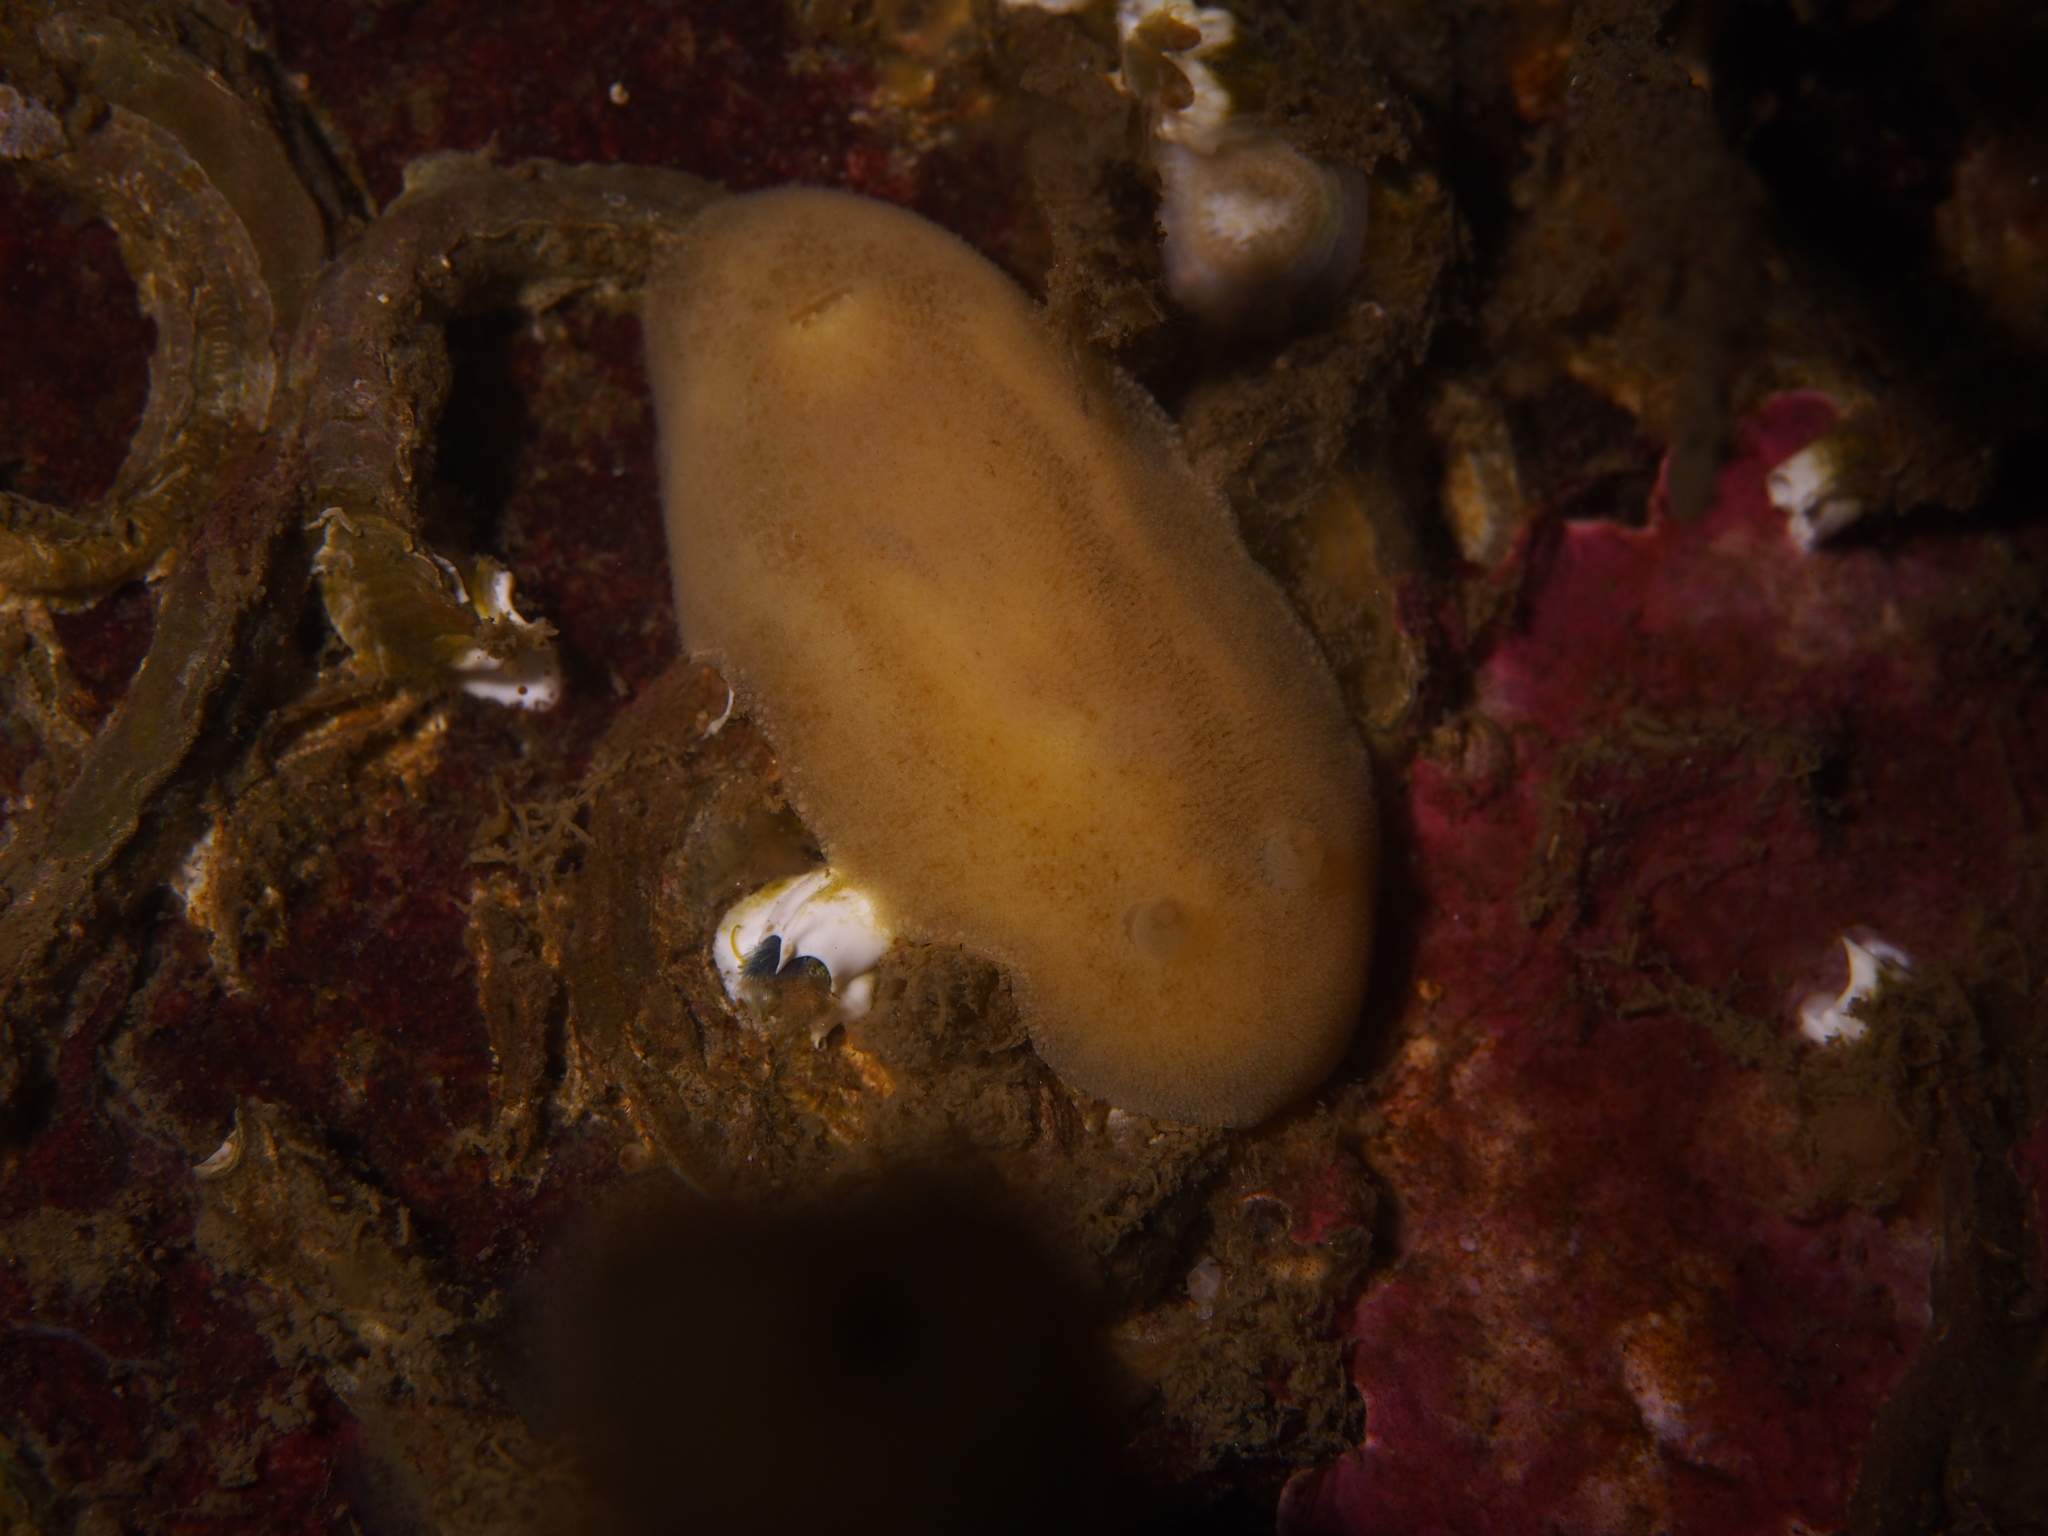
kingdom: Animalia
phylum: Mollusca
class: Gastropoda
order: Nudibranchia
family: Discodorididae
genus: Jorunna
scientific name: Jorunna tomentosa
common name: Grey sea slug
